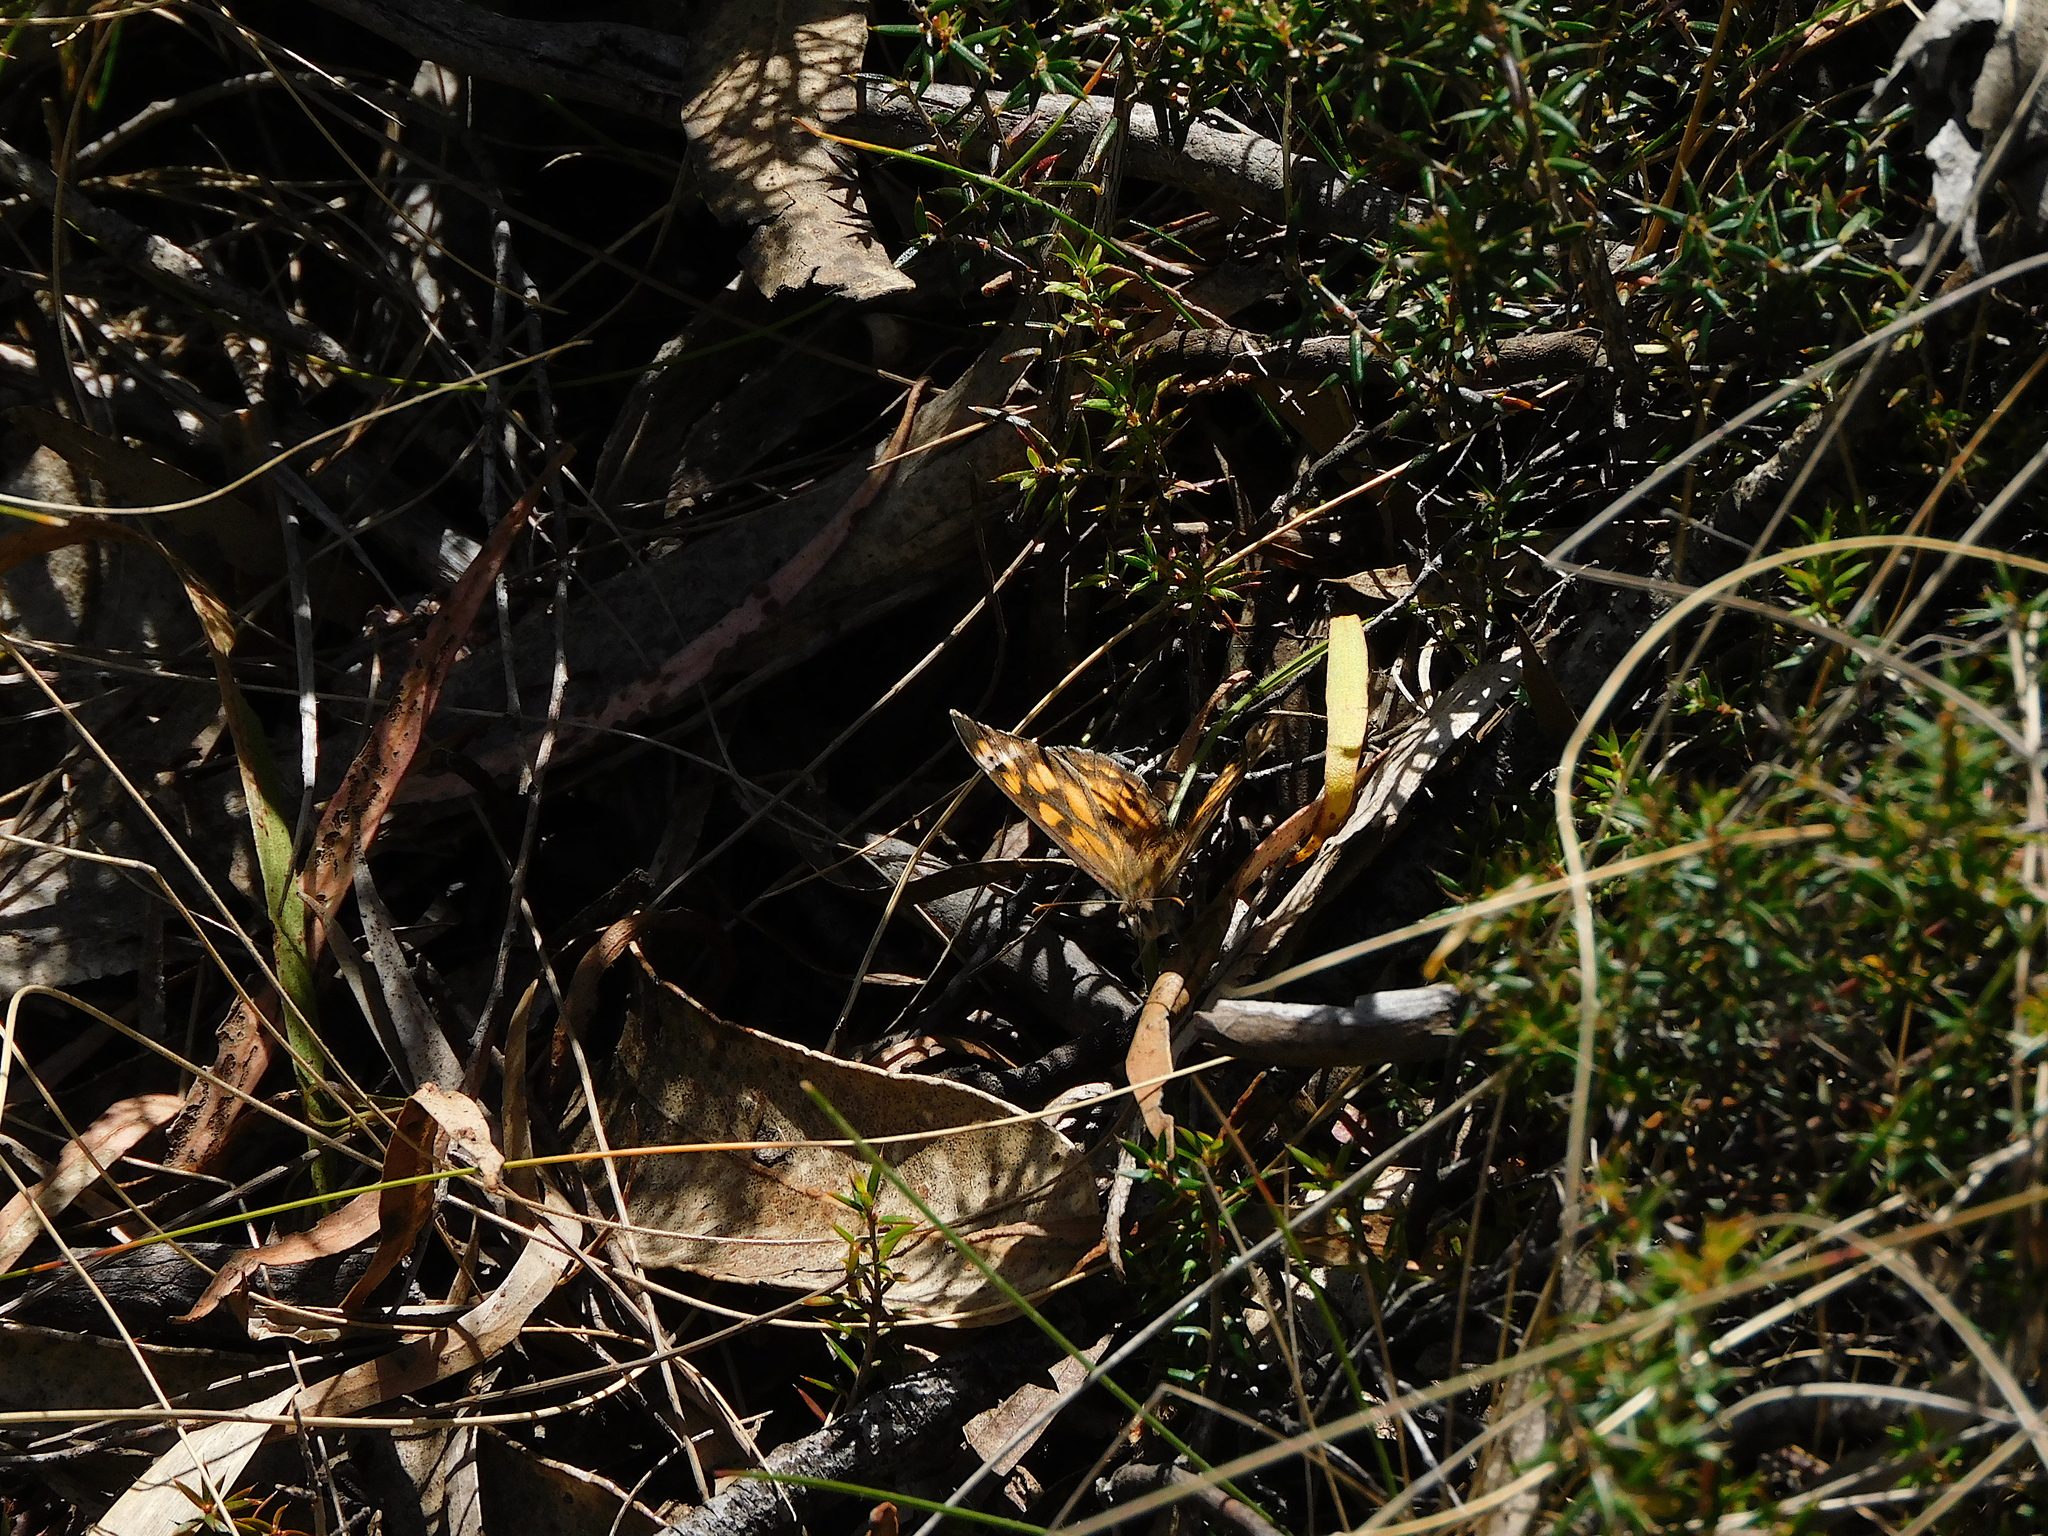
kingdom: Animalia
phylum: Arthropoda
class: Insecta
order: Lepidoptera
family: Nymphalidae
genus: Geitoneura
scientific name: Geitoneura klugii
